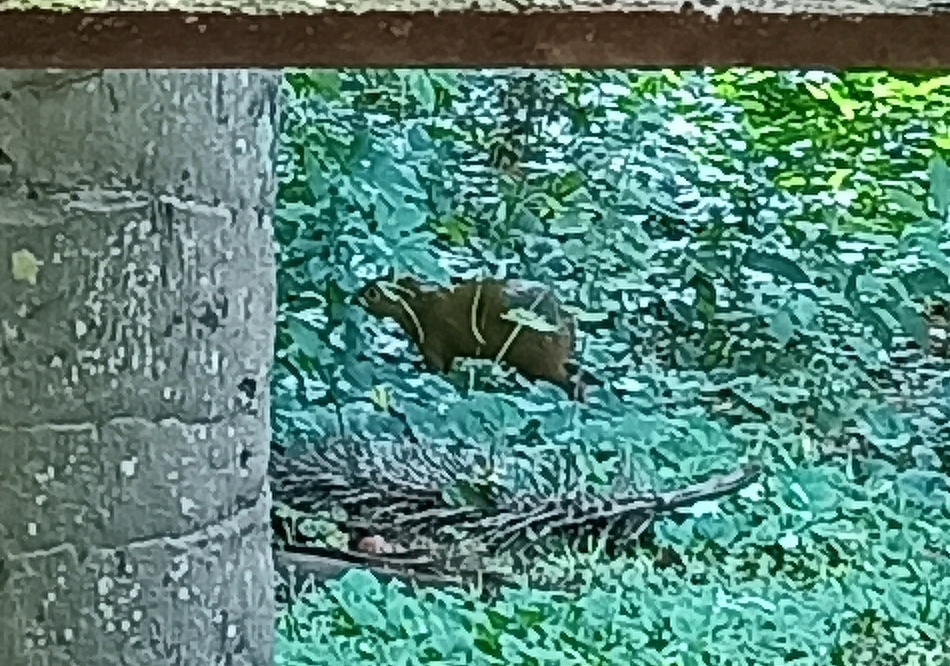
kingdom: Animalia
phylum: Chordata
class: Mammalia
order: Rodentia
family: Dasyproctidae
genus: Dasyprocta
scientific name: Dasyprocta azarae
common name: Azara's agouti
